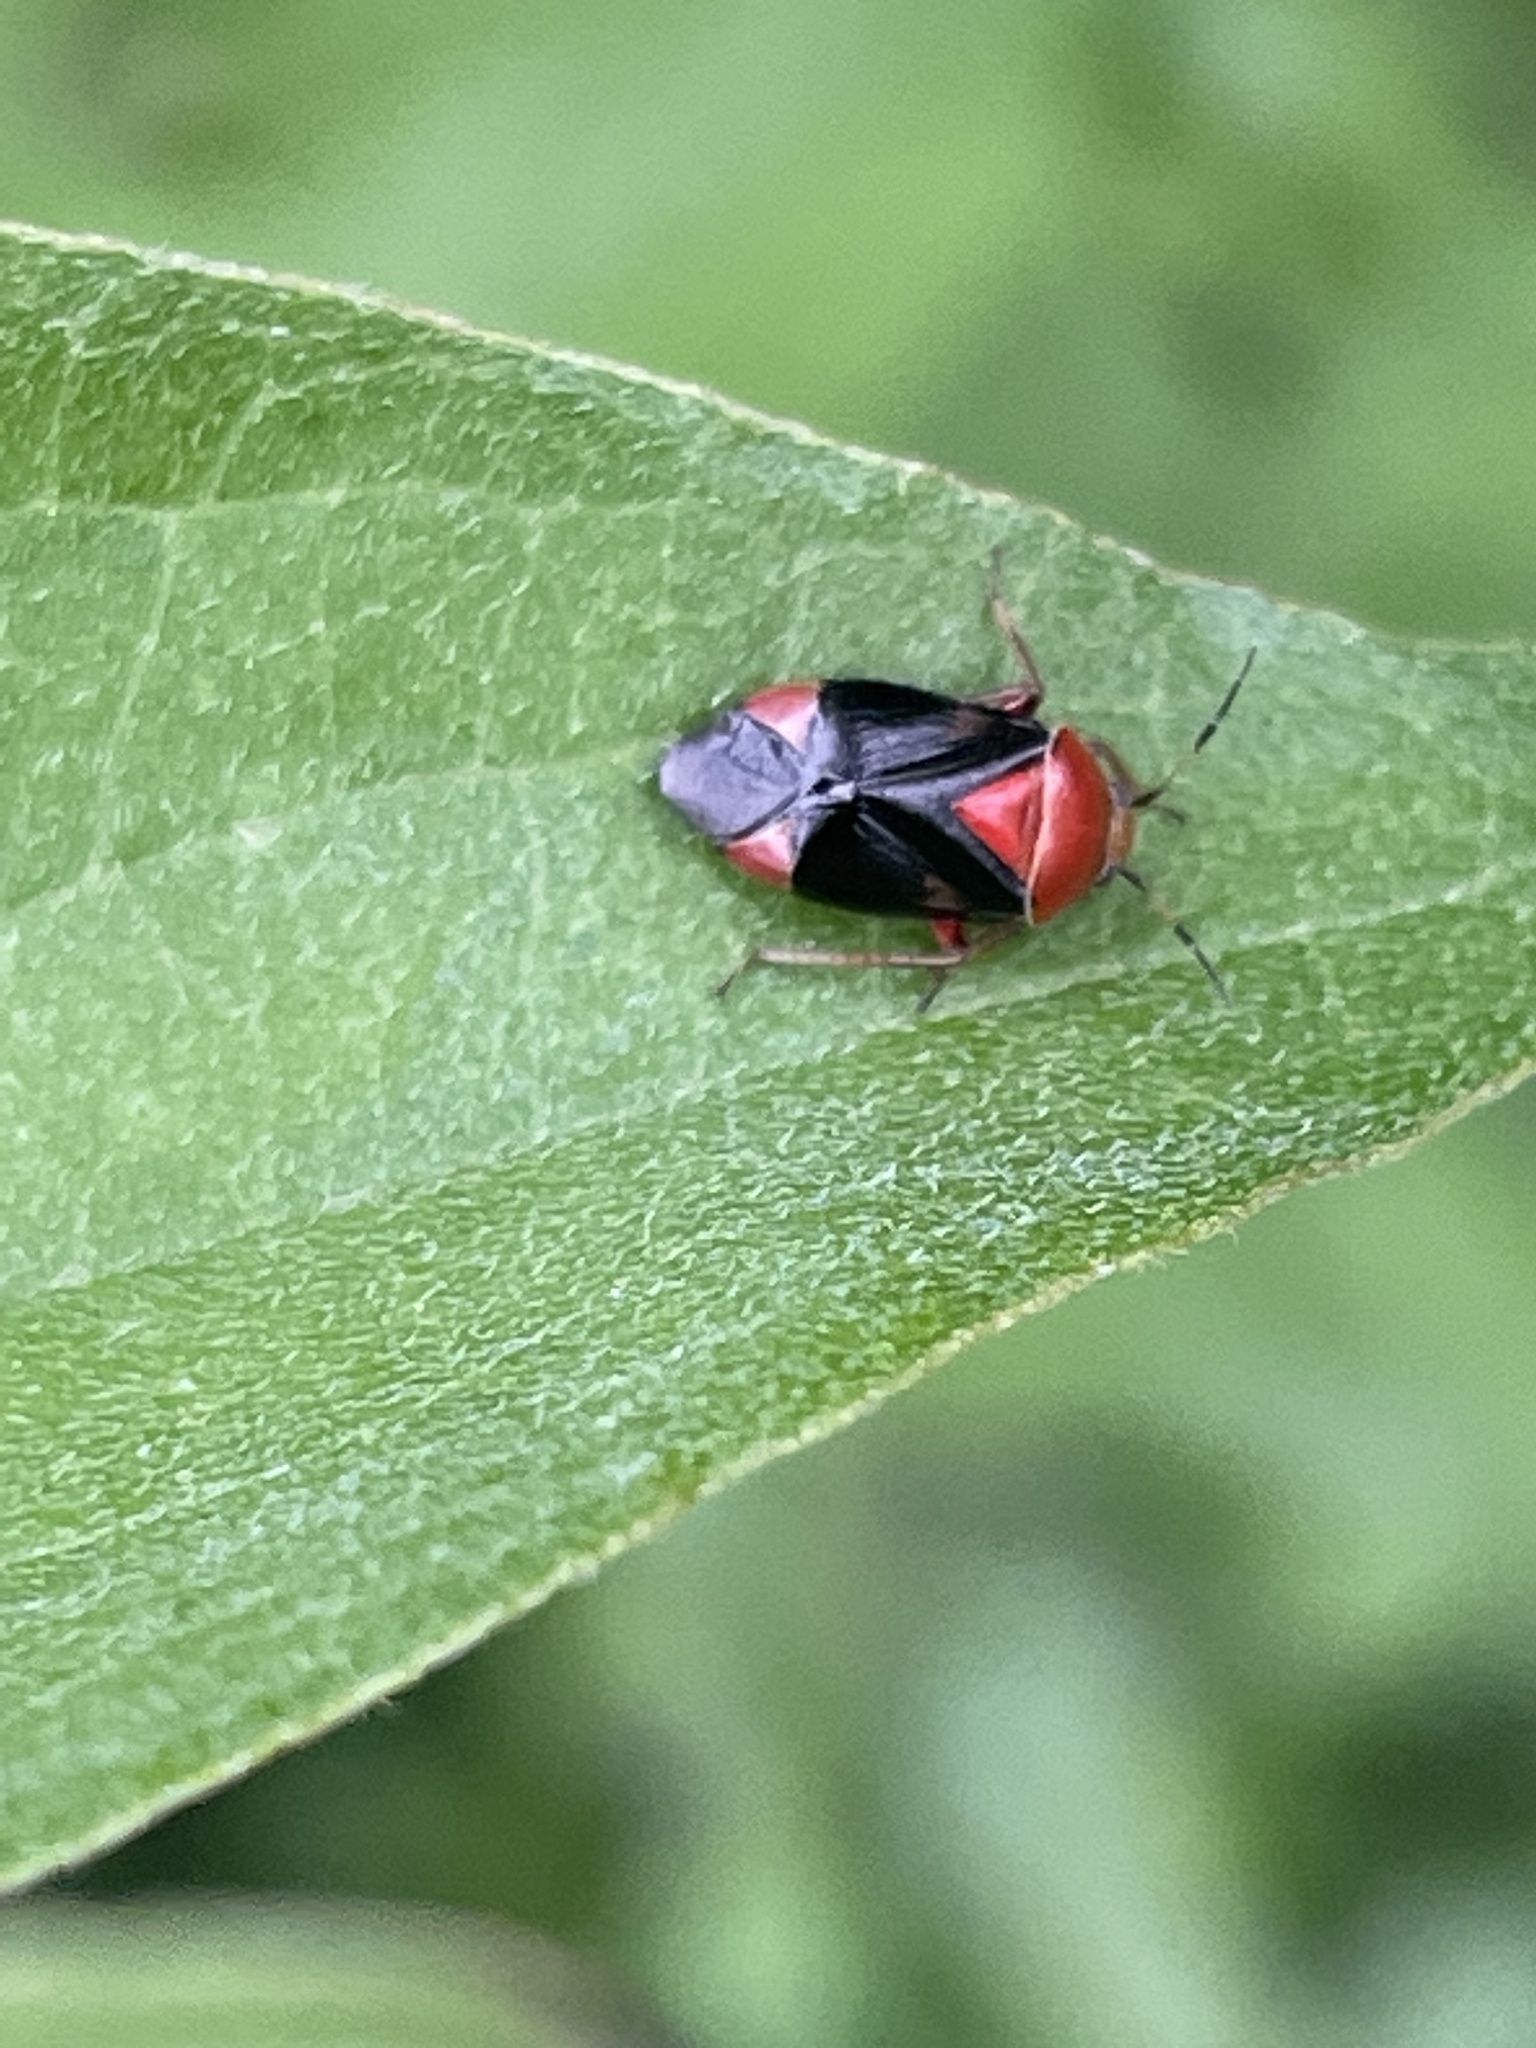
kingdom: Animalia
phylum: Arthropoda
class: Insecta
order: Hemiptera
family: Miridae
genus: Neocapsus
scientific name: Neocapsus cuneatus
